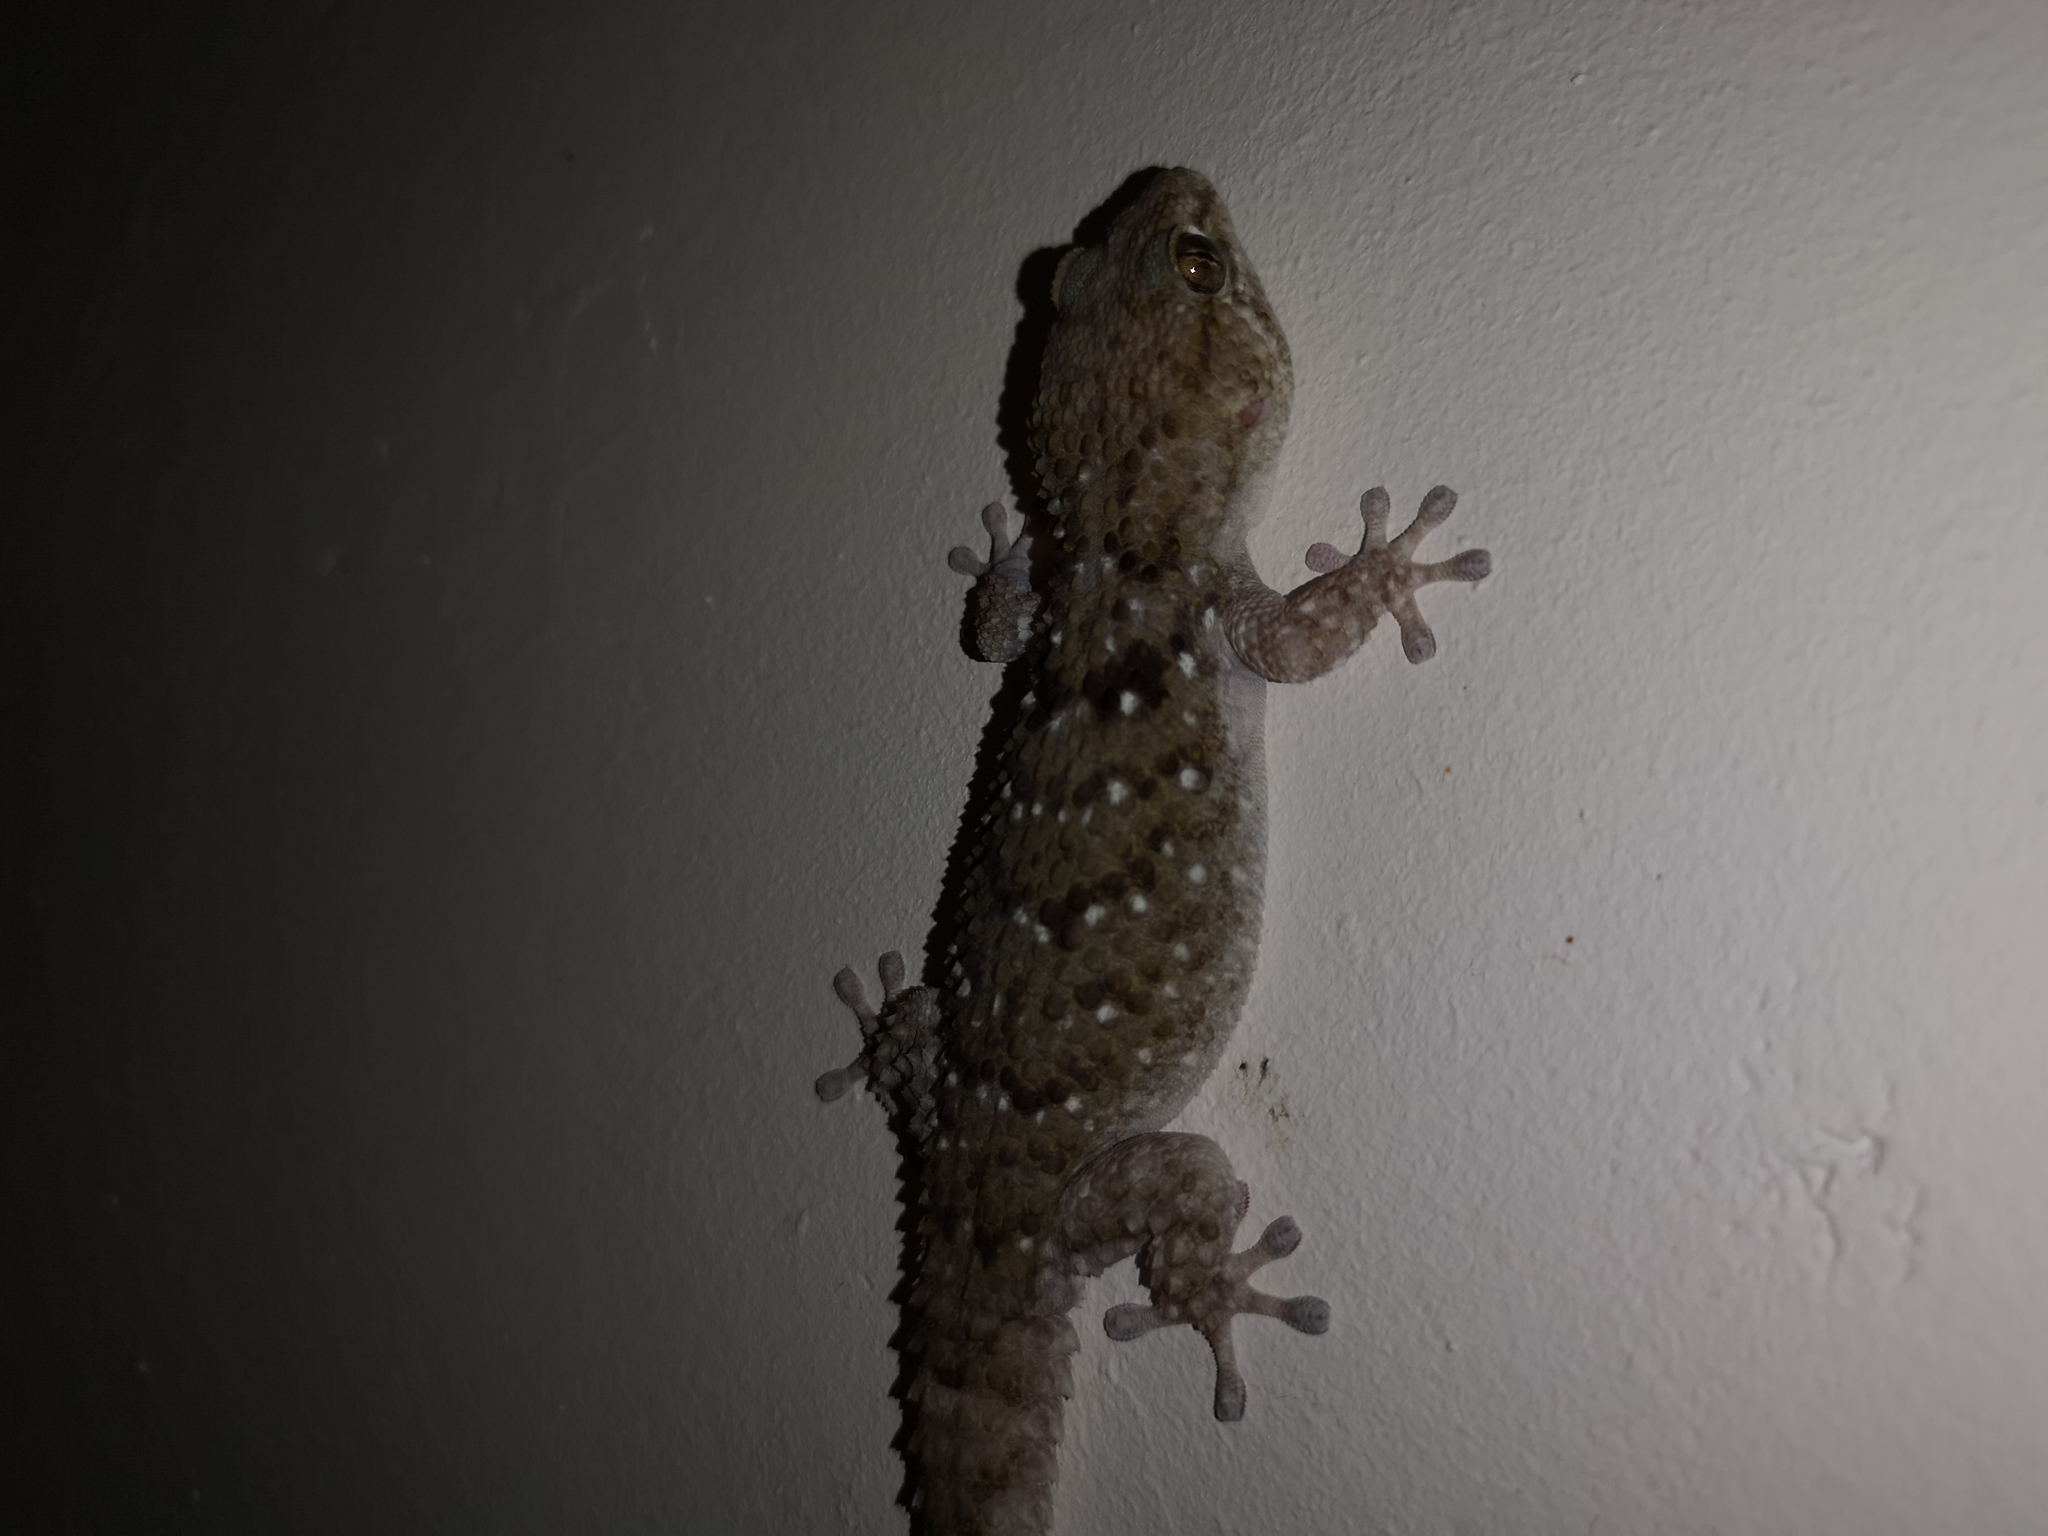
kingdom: Animalia
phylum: Chordata
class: Squamata
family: Gekkonidae
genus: Chondrodactylus
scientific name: Chondrodactylus turneri
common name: Turner’s gecko
